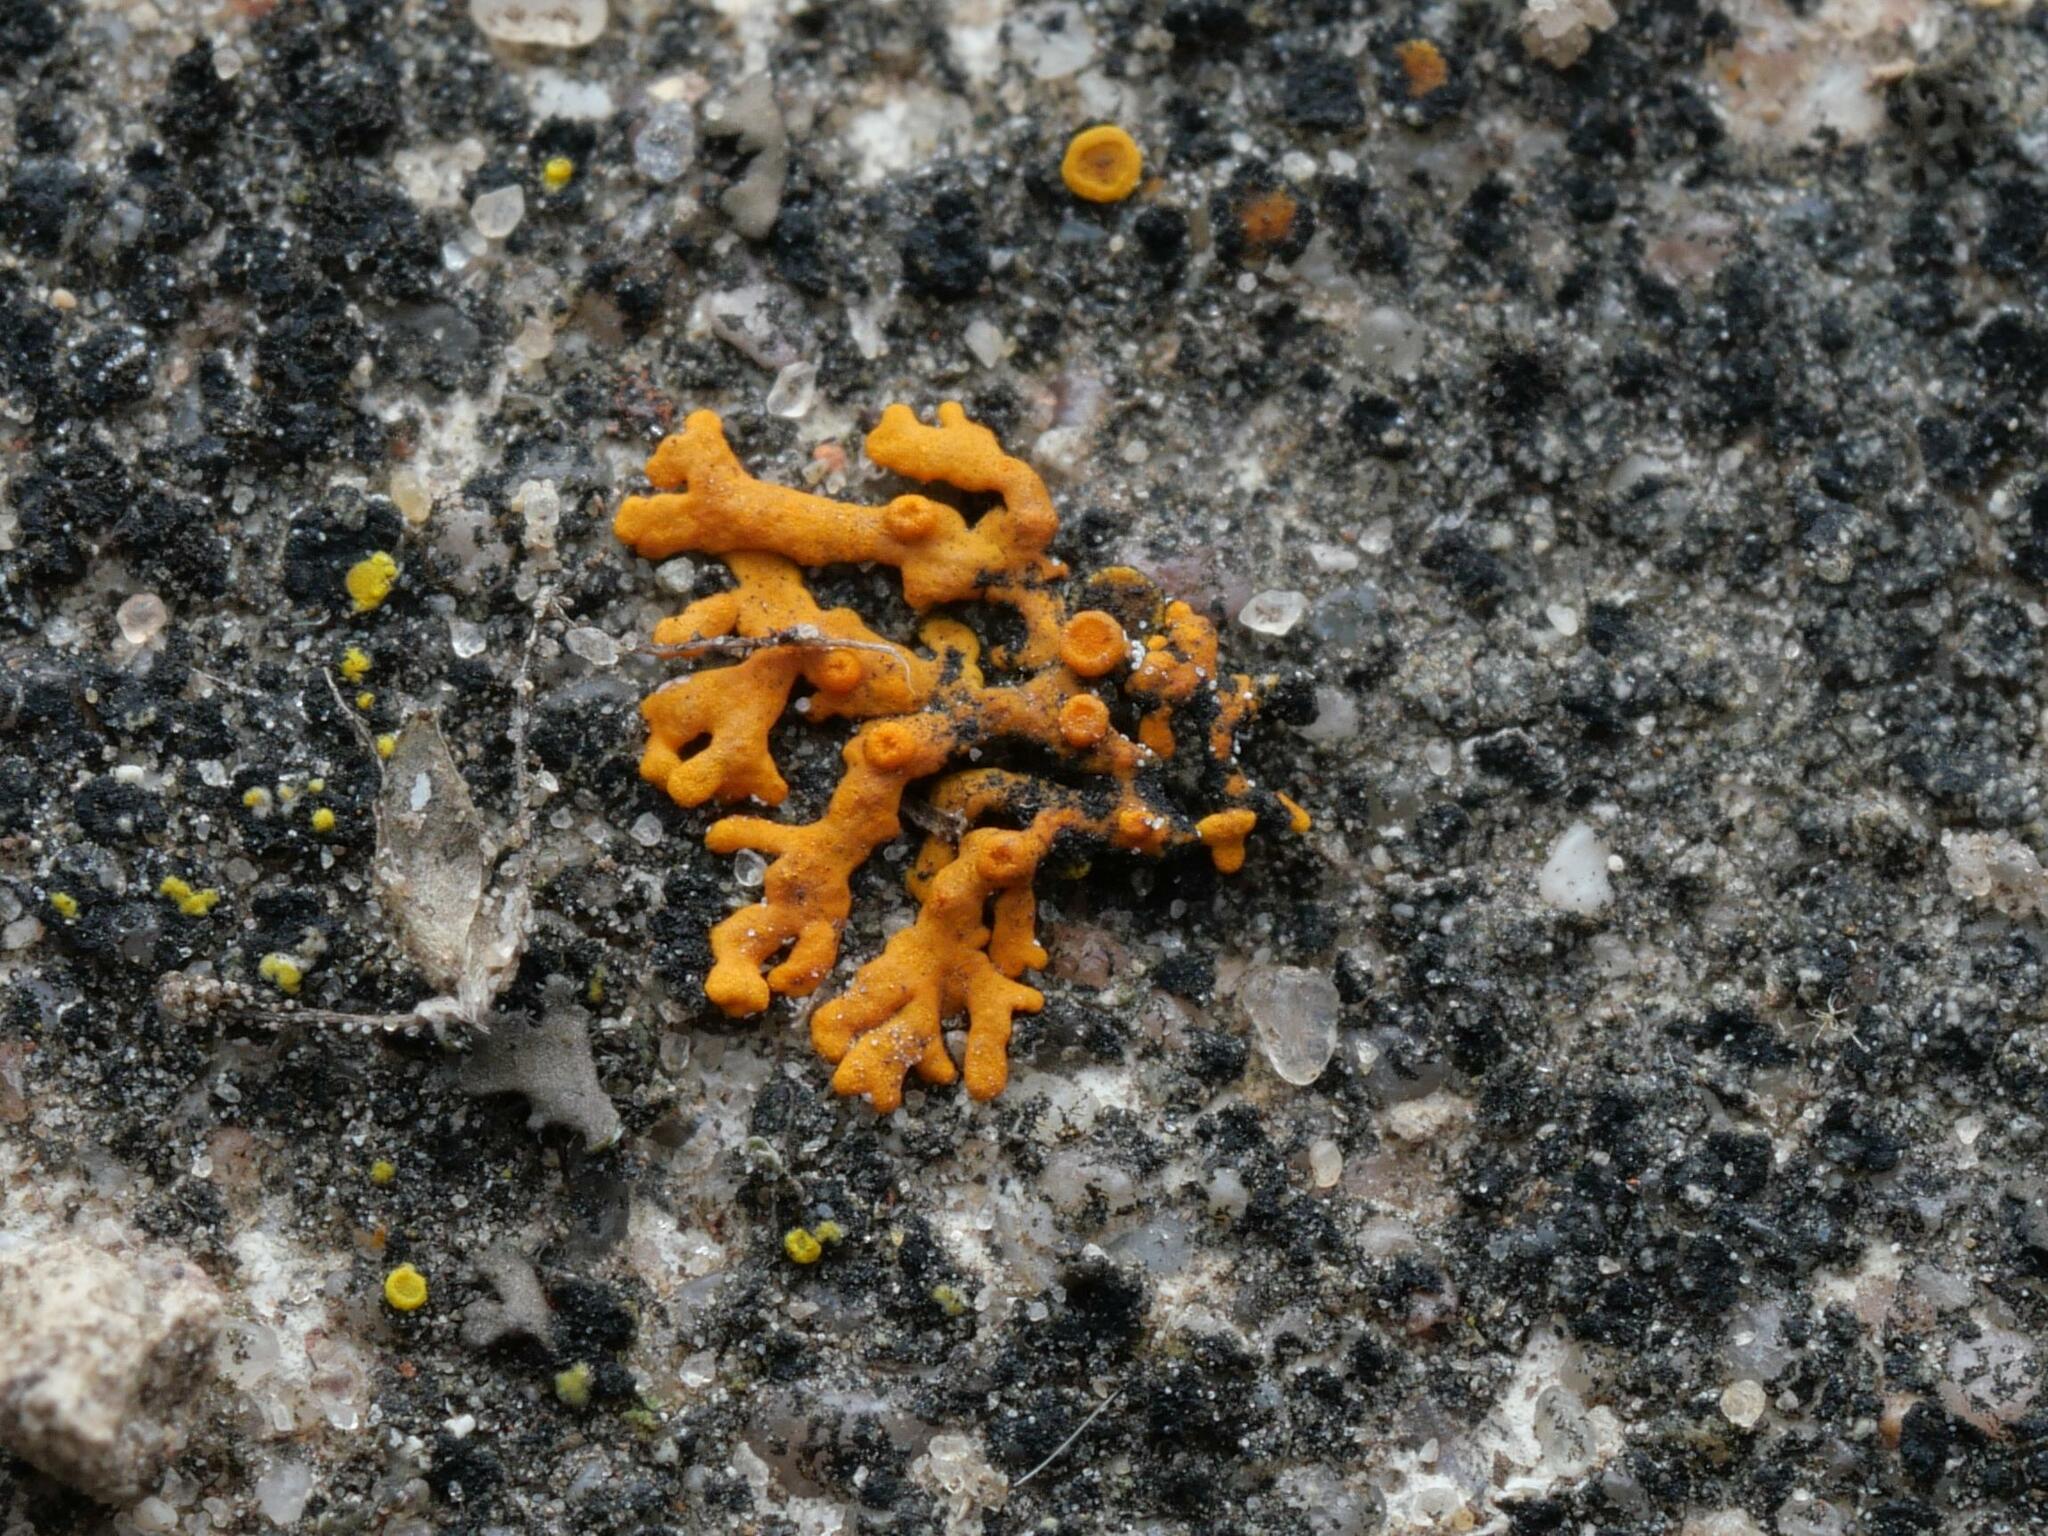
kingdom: Fungi
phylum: Ascomycota
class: Lecanoromycetes
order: Teloschistales
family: Teloschistaceae
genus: Xanthoria
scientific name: Xanthoria elegans
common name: Elegant sunburst lichen
